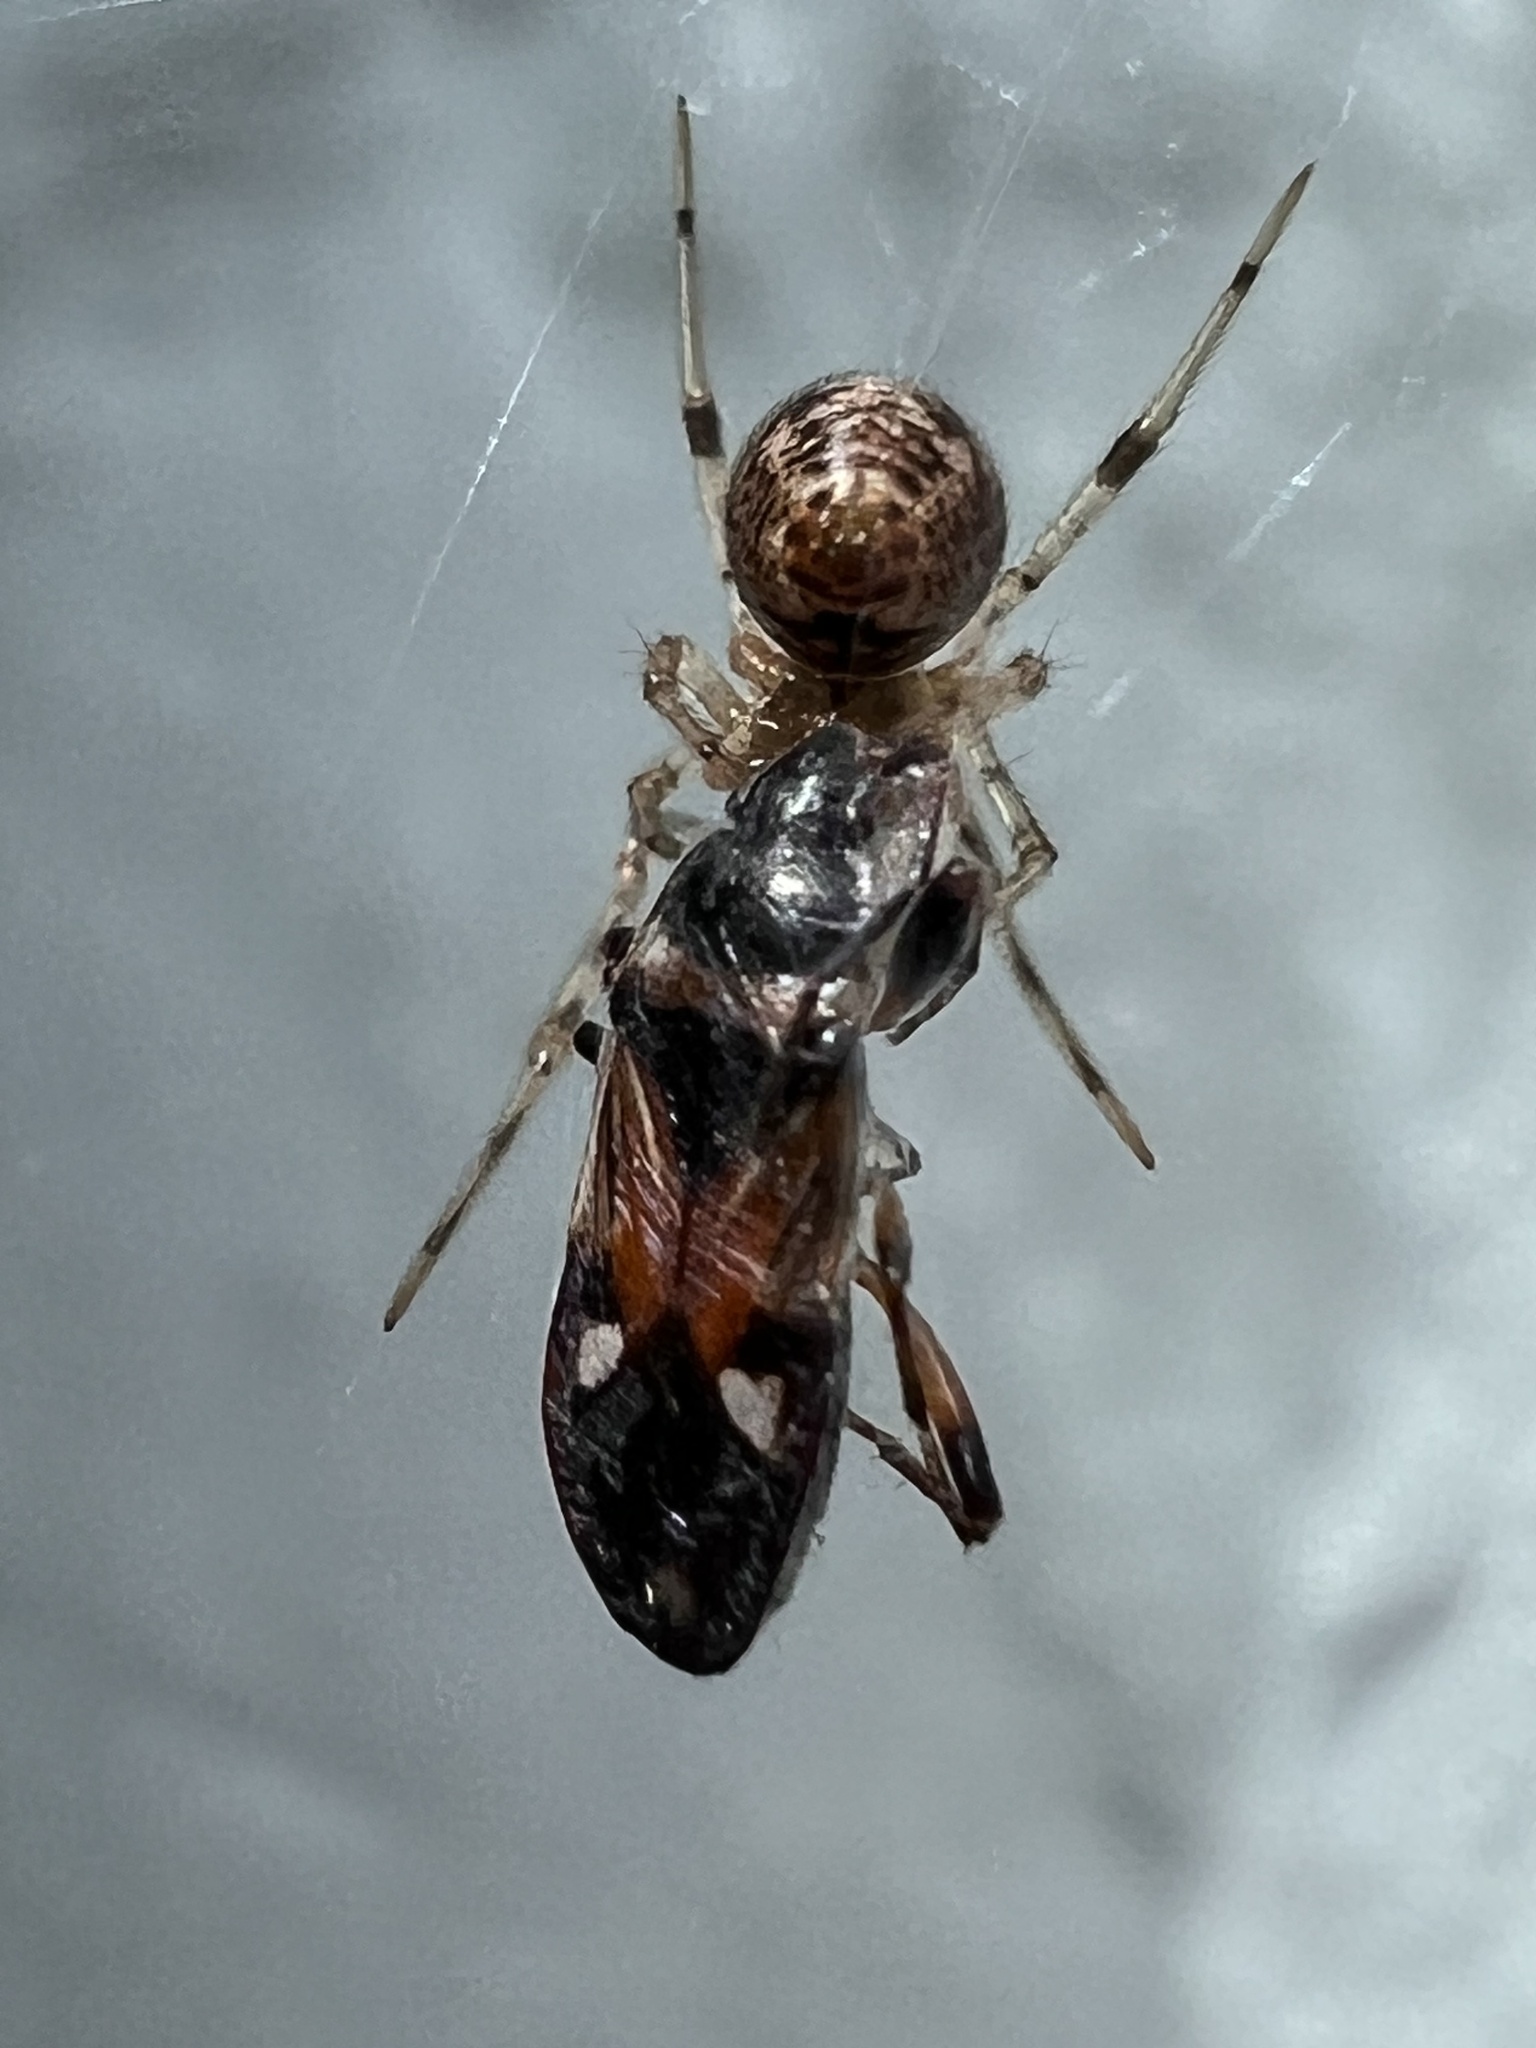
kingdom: Animalia
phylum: Arthropoda
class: Arachnida
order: Araneae
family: Theridiidae
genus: Parasteatoda
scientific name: Parasteatoda tepidariorum
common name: Common house spider
